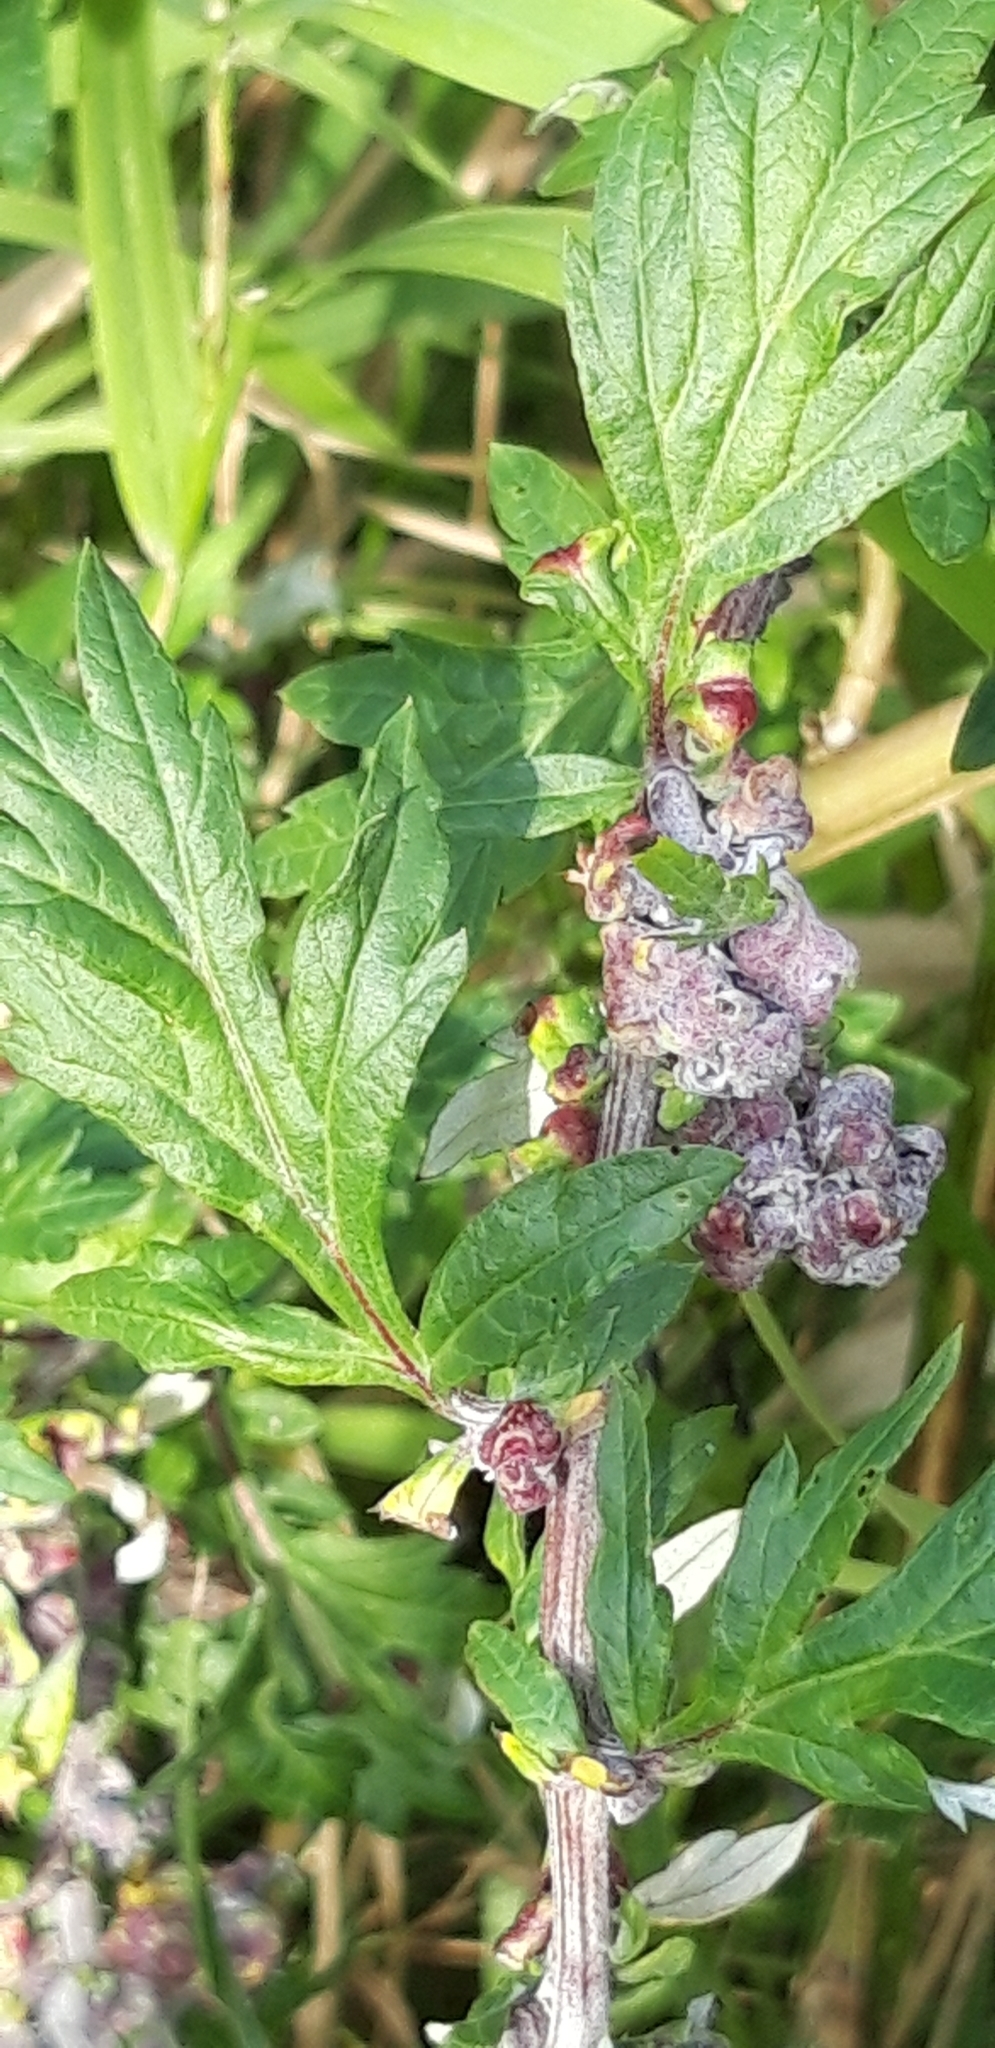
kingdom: Animalia
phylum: Arthropoda
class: Insecta
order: Hemiptera
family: Aphididae
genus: Cryptosiphum
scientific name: Cryptosiphum artemisiae
